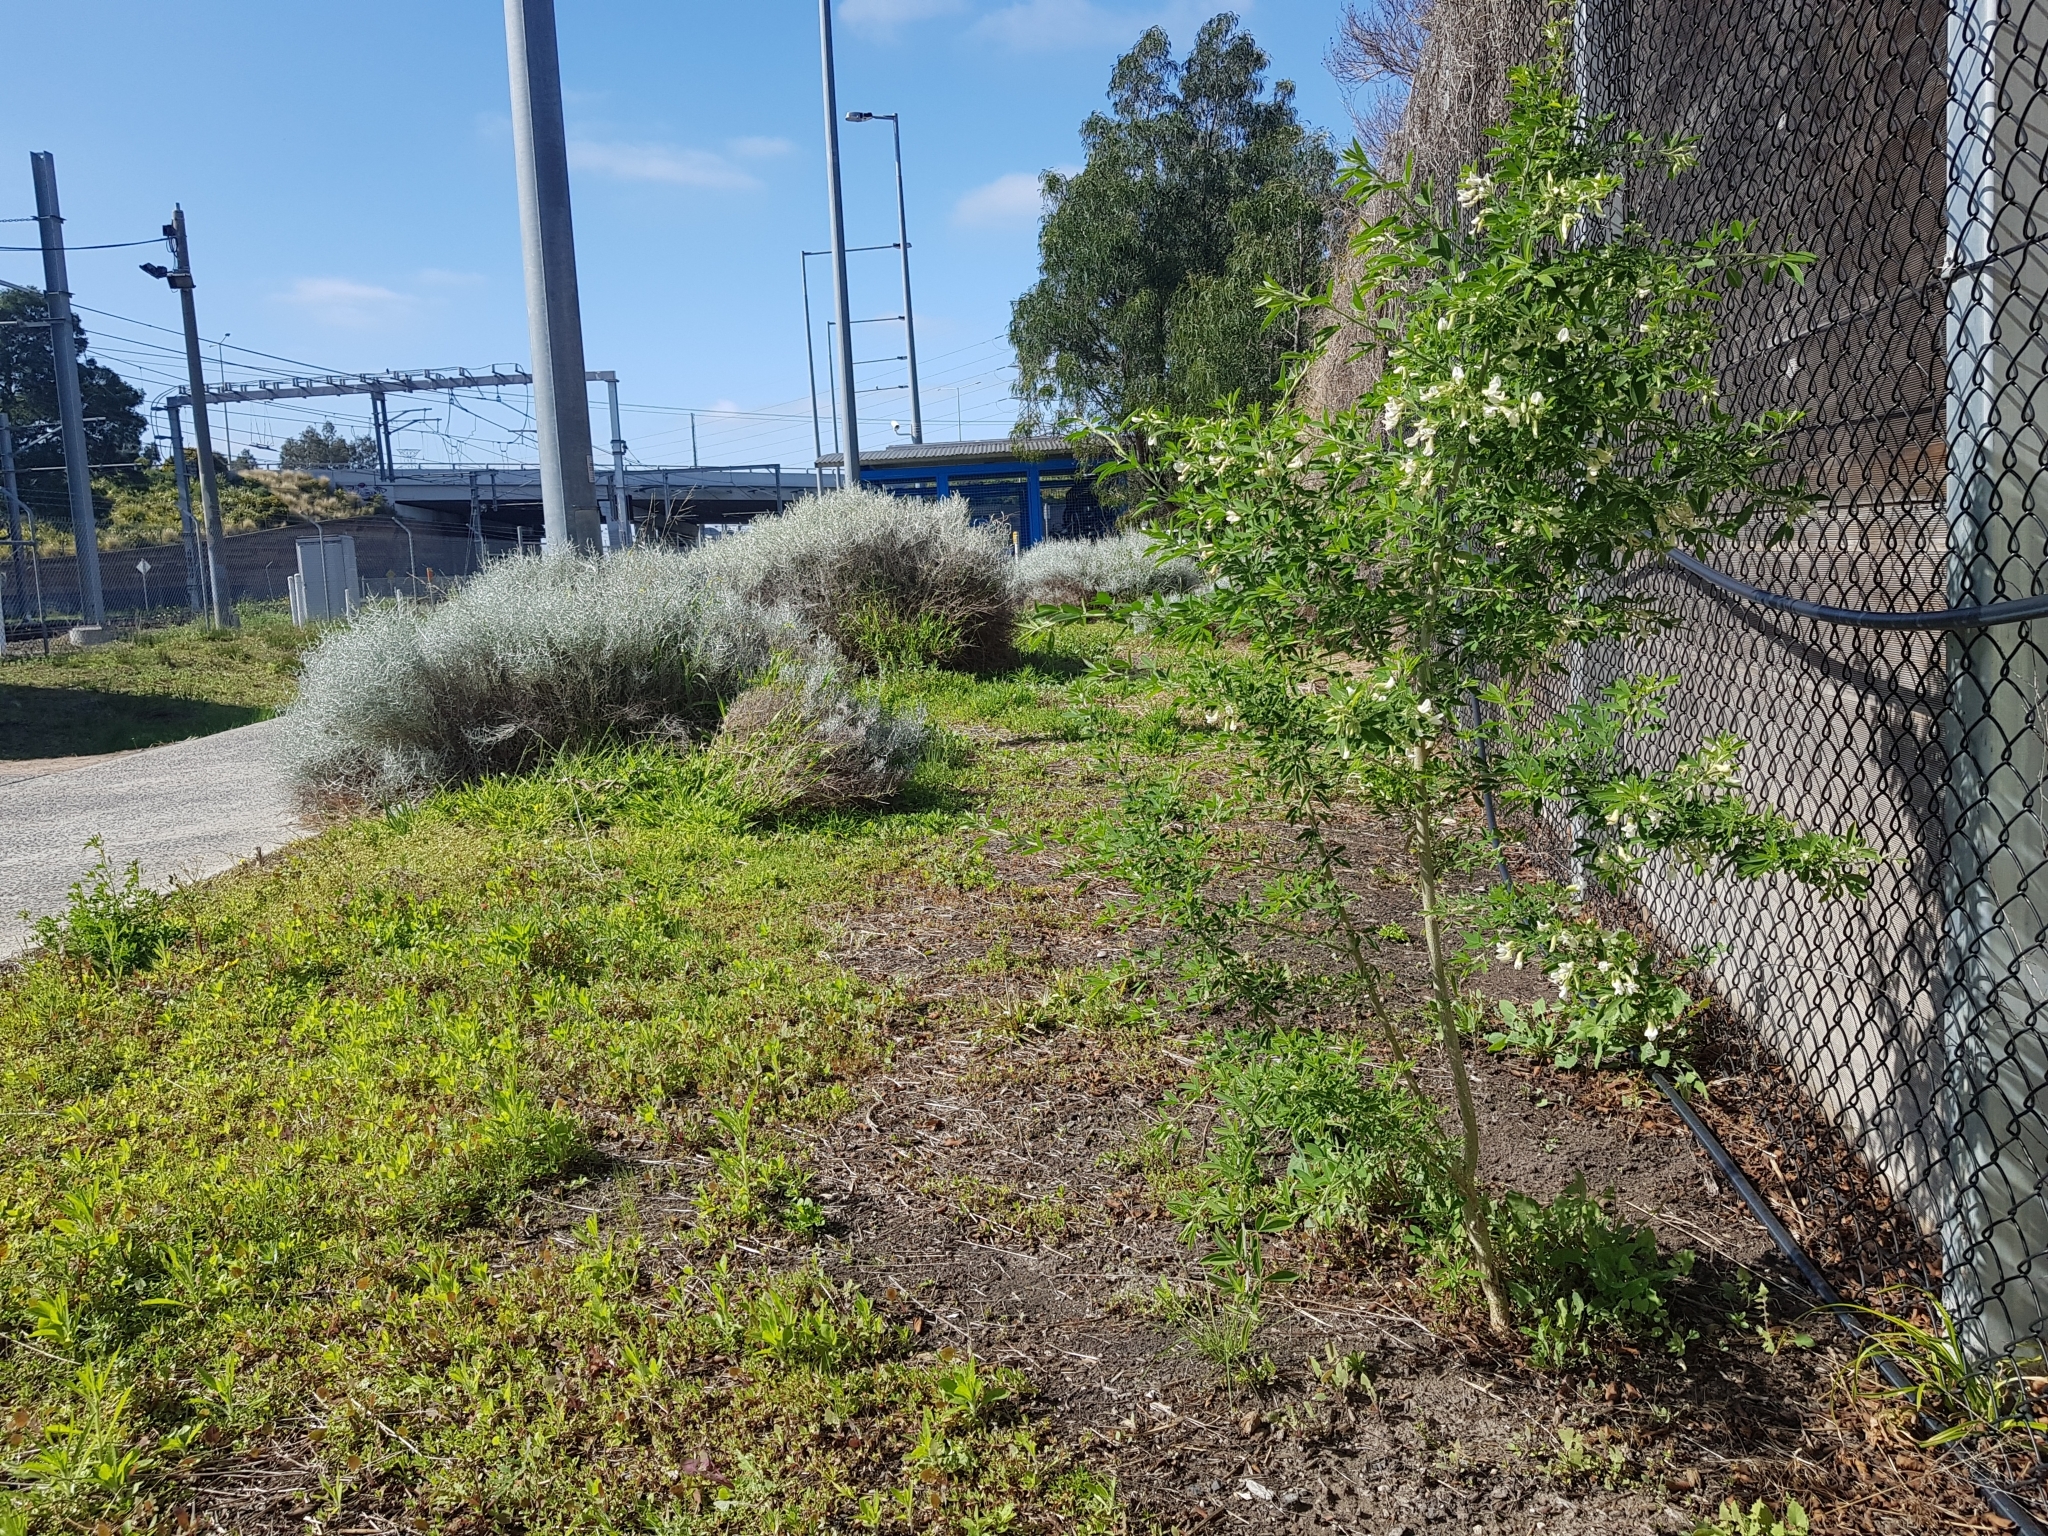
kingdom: Plantae
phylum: Tracheophyta
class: Magnoliopsida
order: Fabales
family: Fabaceae
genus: Chamaecytisus
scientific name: Chamaecytisus prolifer
